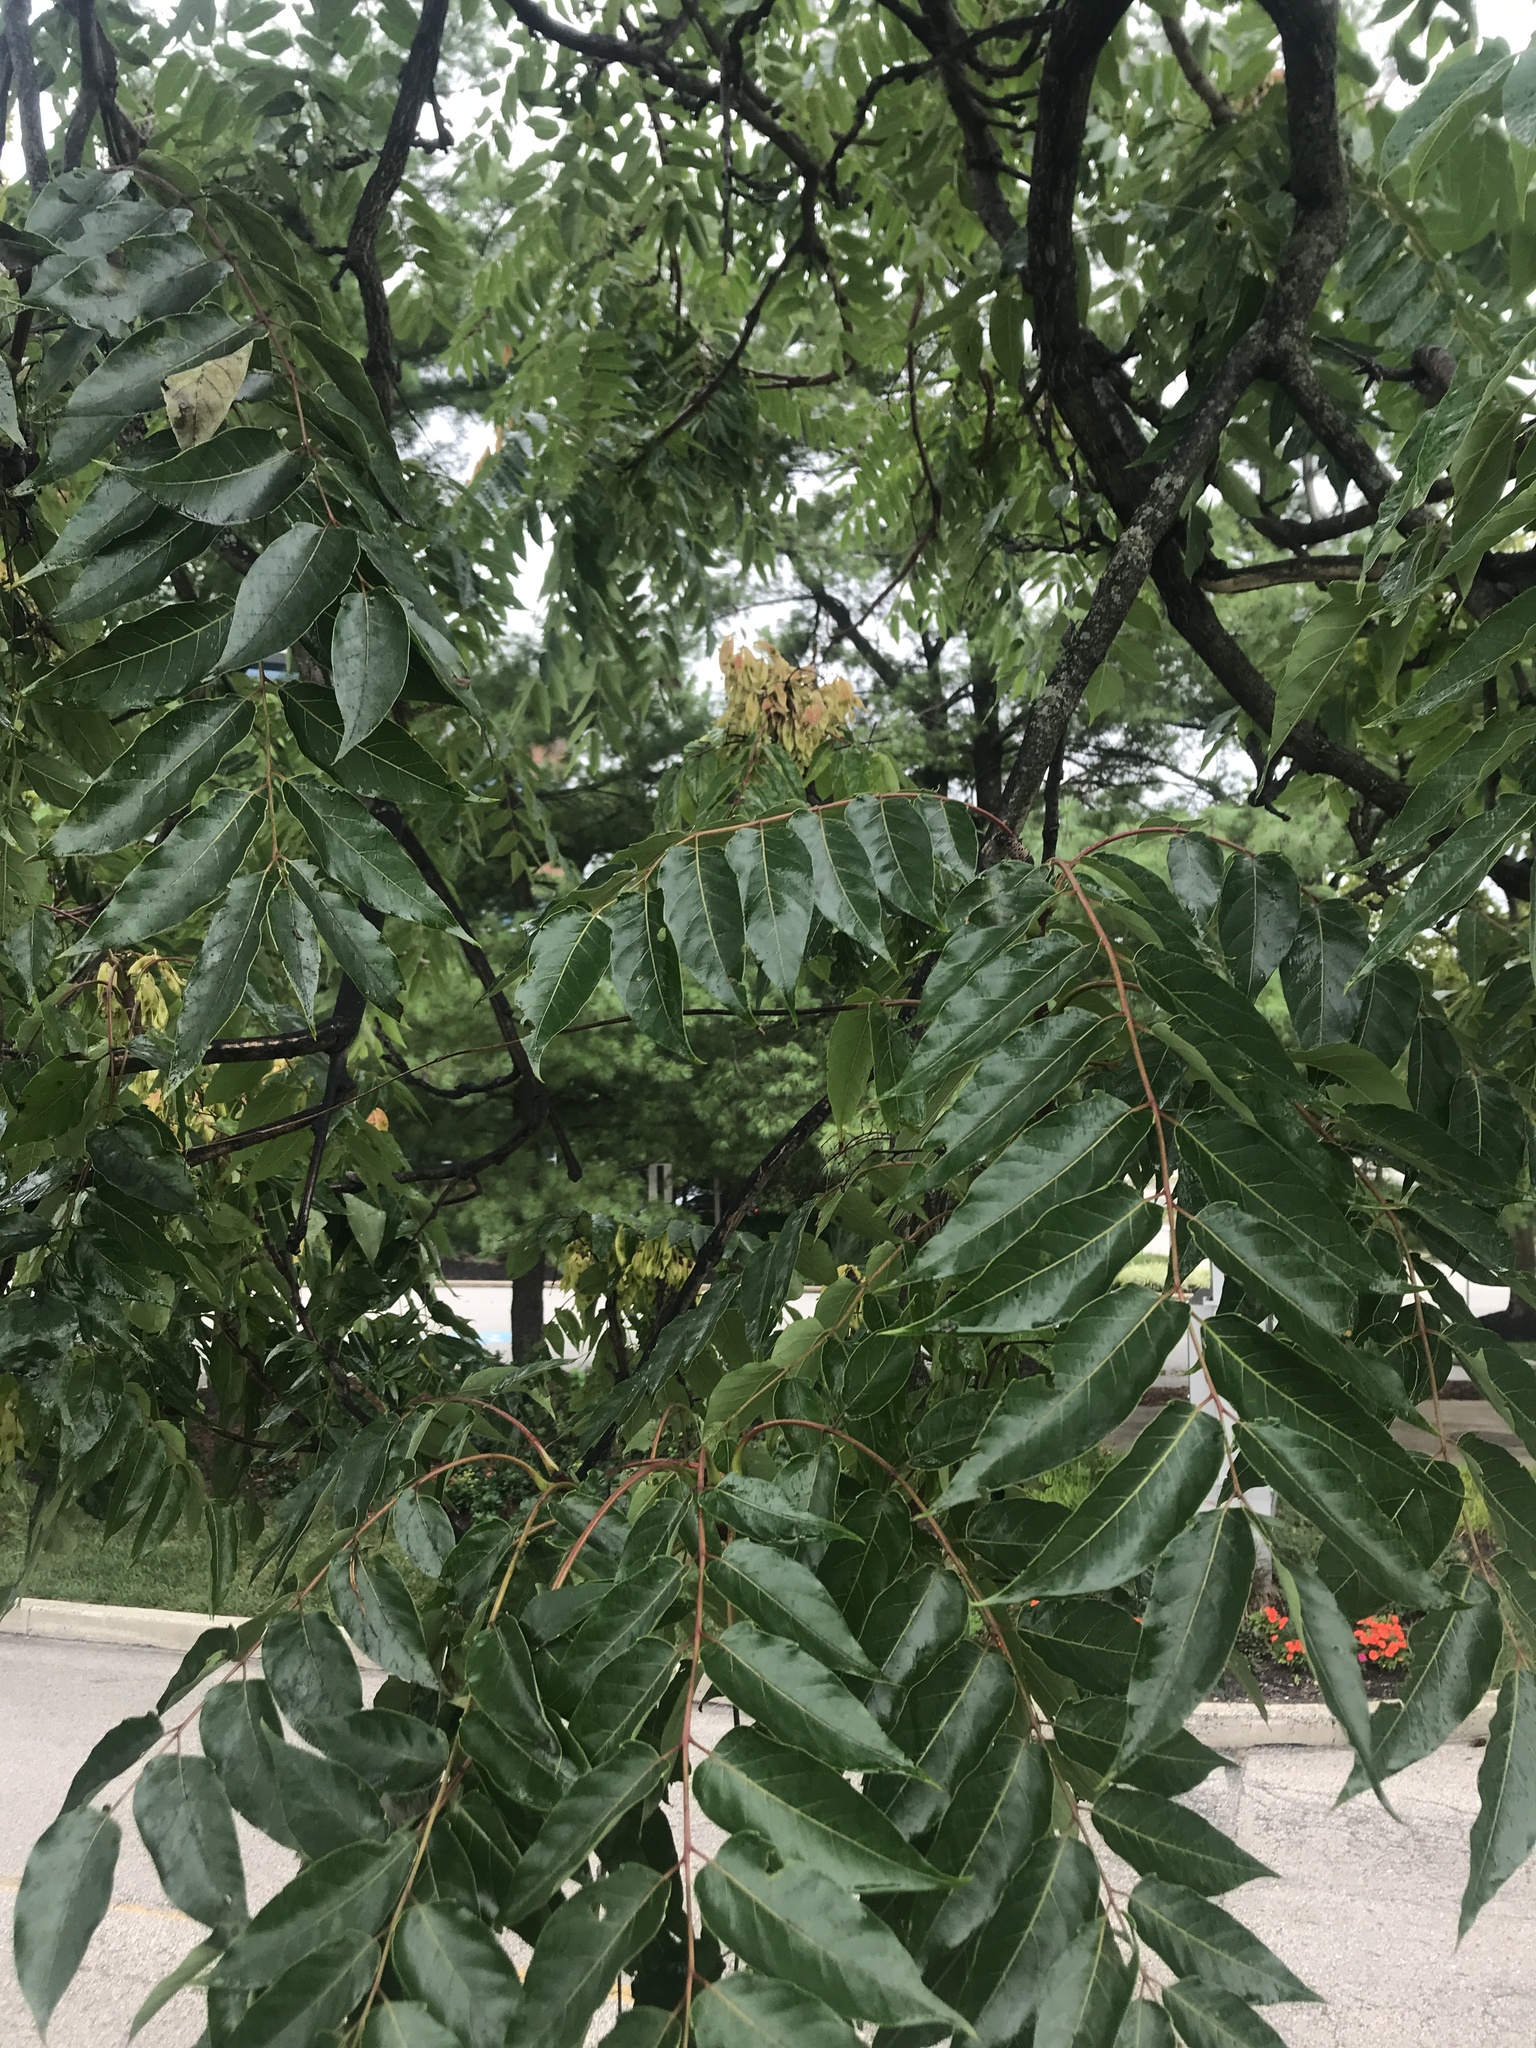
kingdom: Plantae
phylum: Tracheophyta
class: Magnoliopsida
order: Sapindales
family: Simaroubaceae
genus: Ailanthus
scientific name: Ailanthus altissima
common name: Tree-of-heaven
